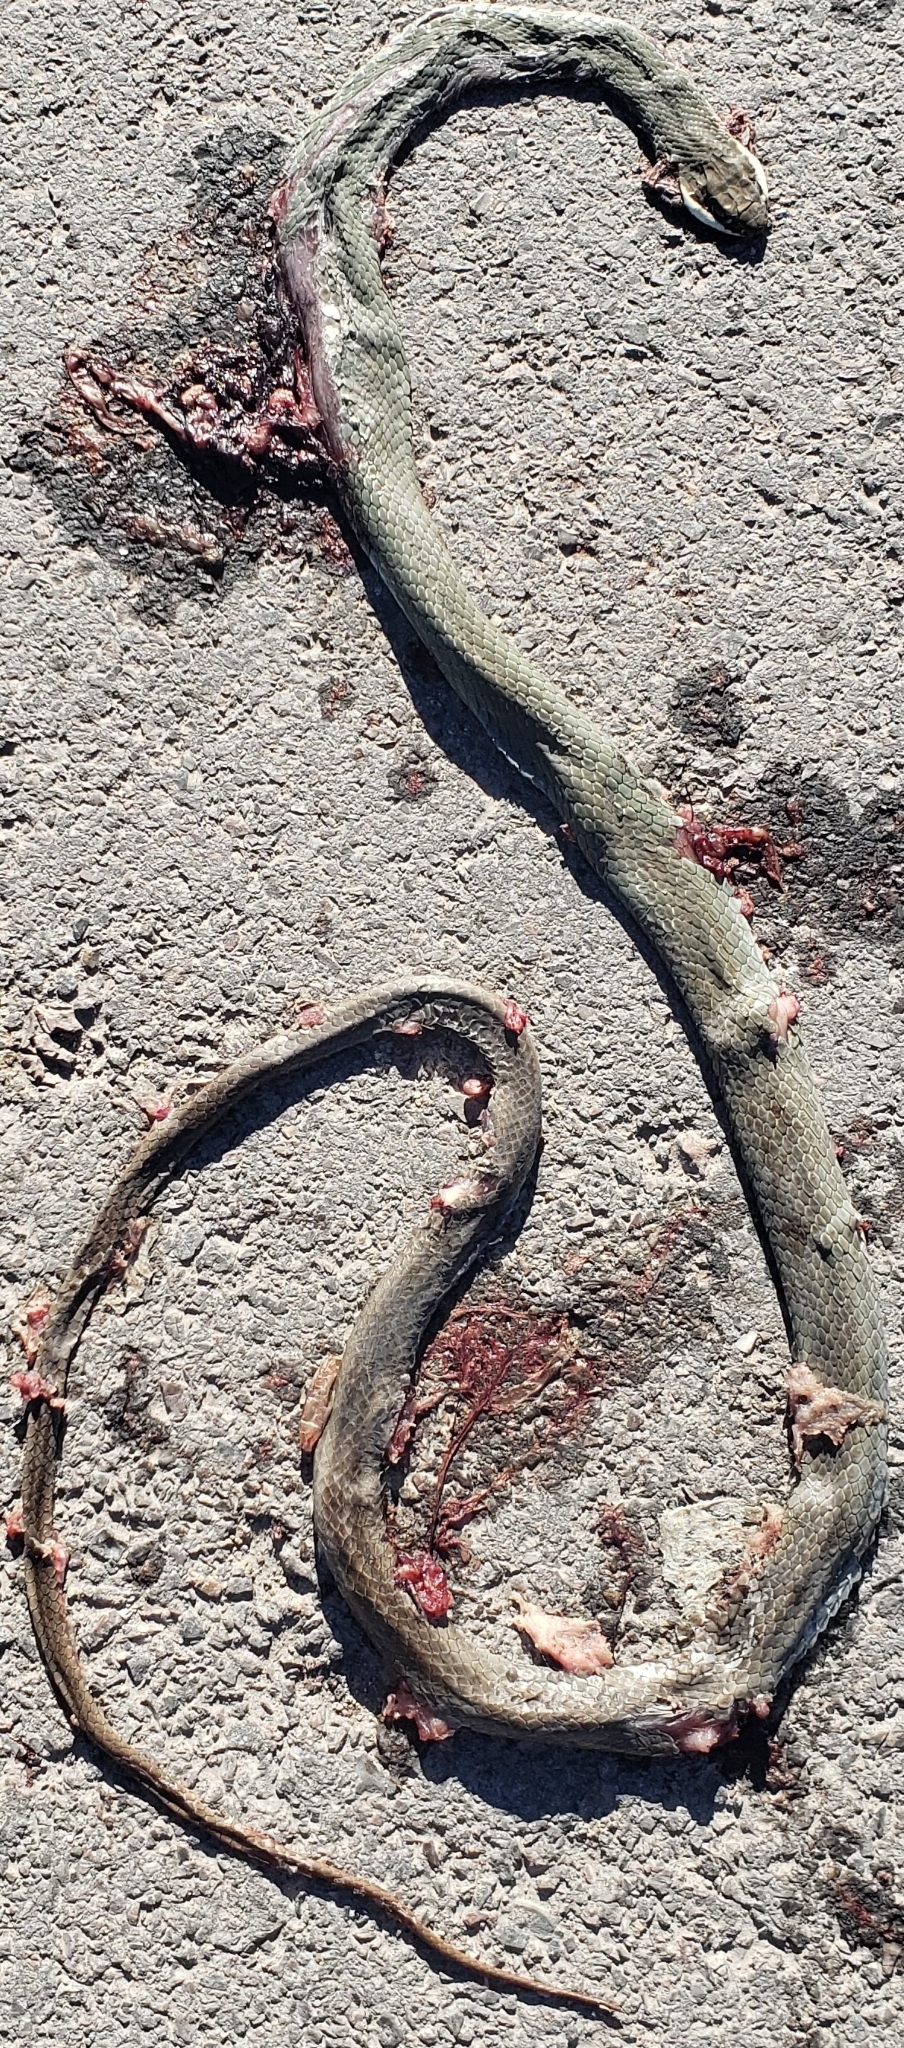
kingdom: Animalia
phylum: Chordata
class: Squamata
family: Colubridae
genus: Masticophis
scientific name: Masticophis schotti
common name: Schott's whipsnake
